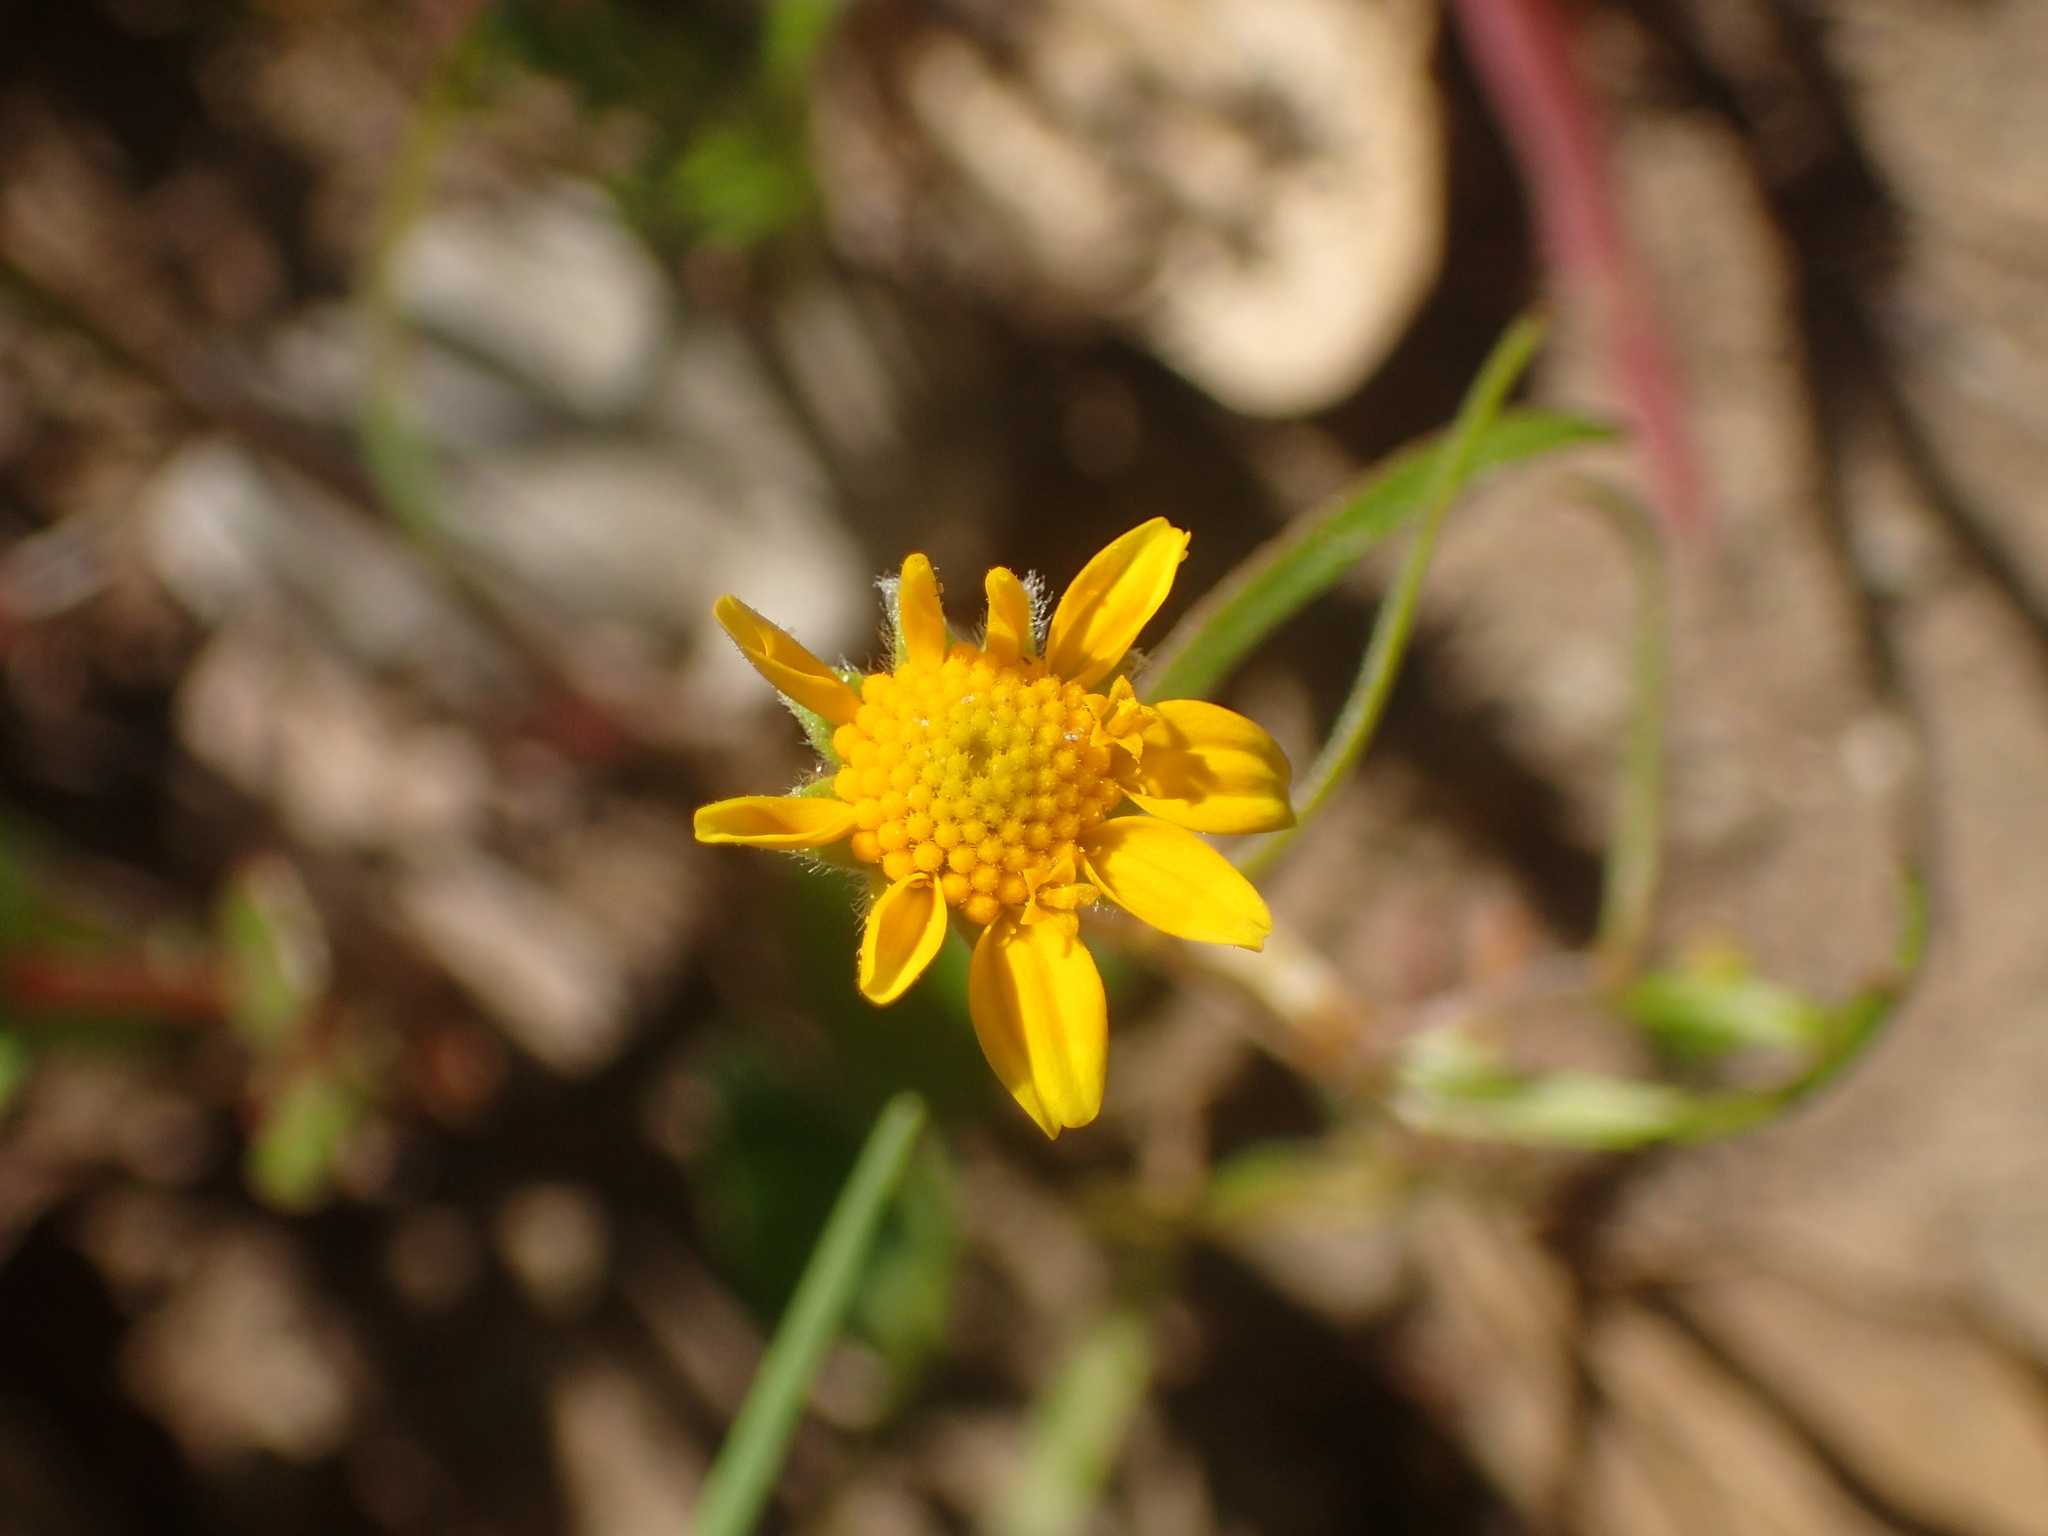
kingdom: Plantae
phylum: Tracheophyta
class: Magnoliopsida
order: Asterales
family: Asteraceae
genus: Lasthenia
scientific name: Lasthenia gracilis
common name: Common goldfields
